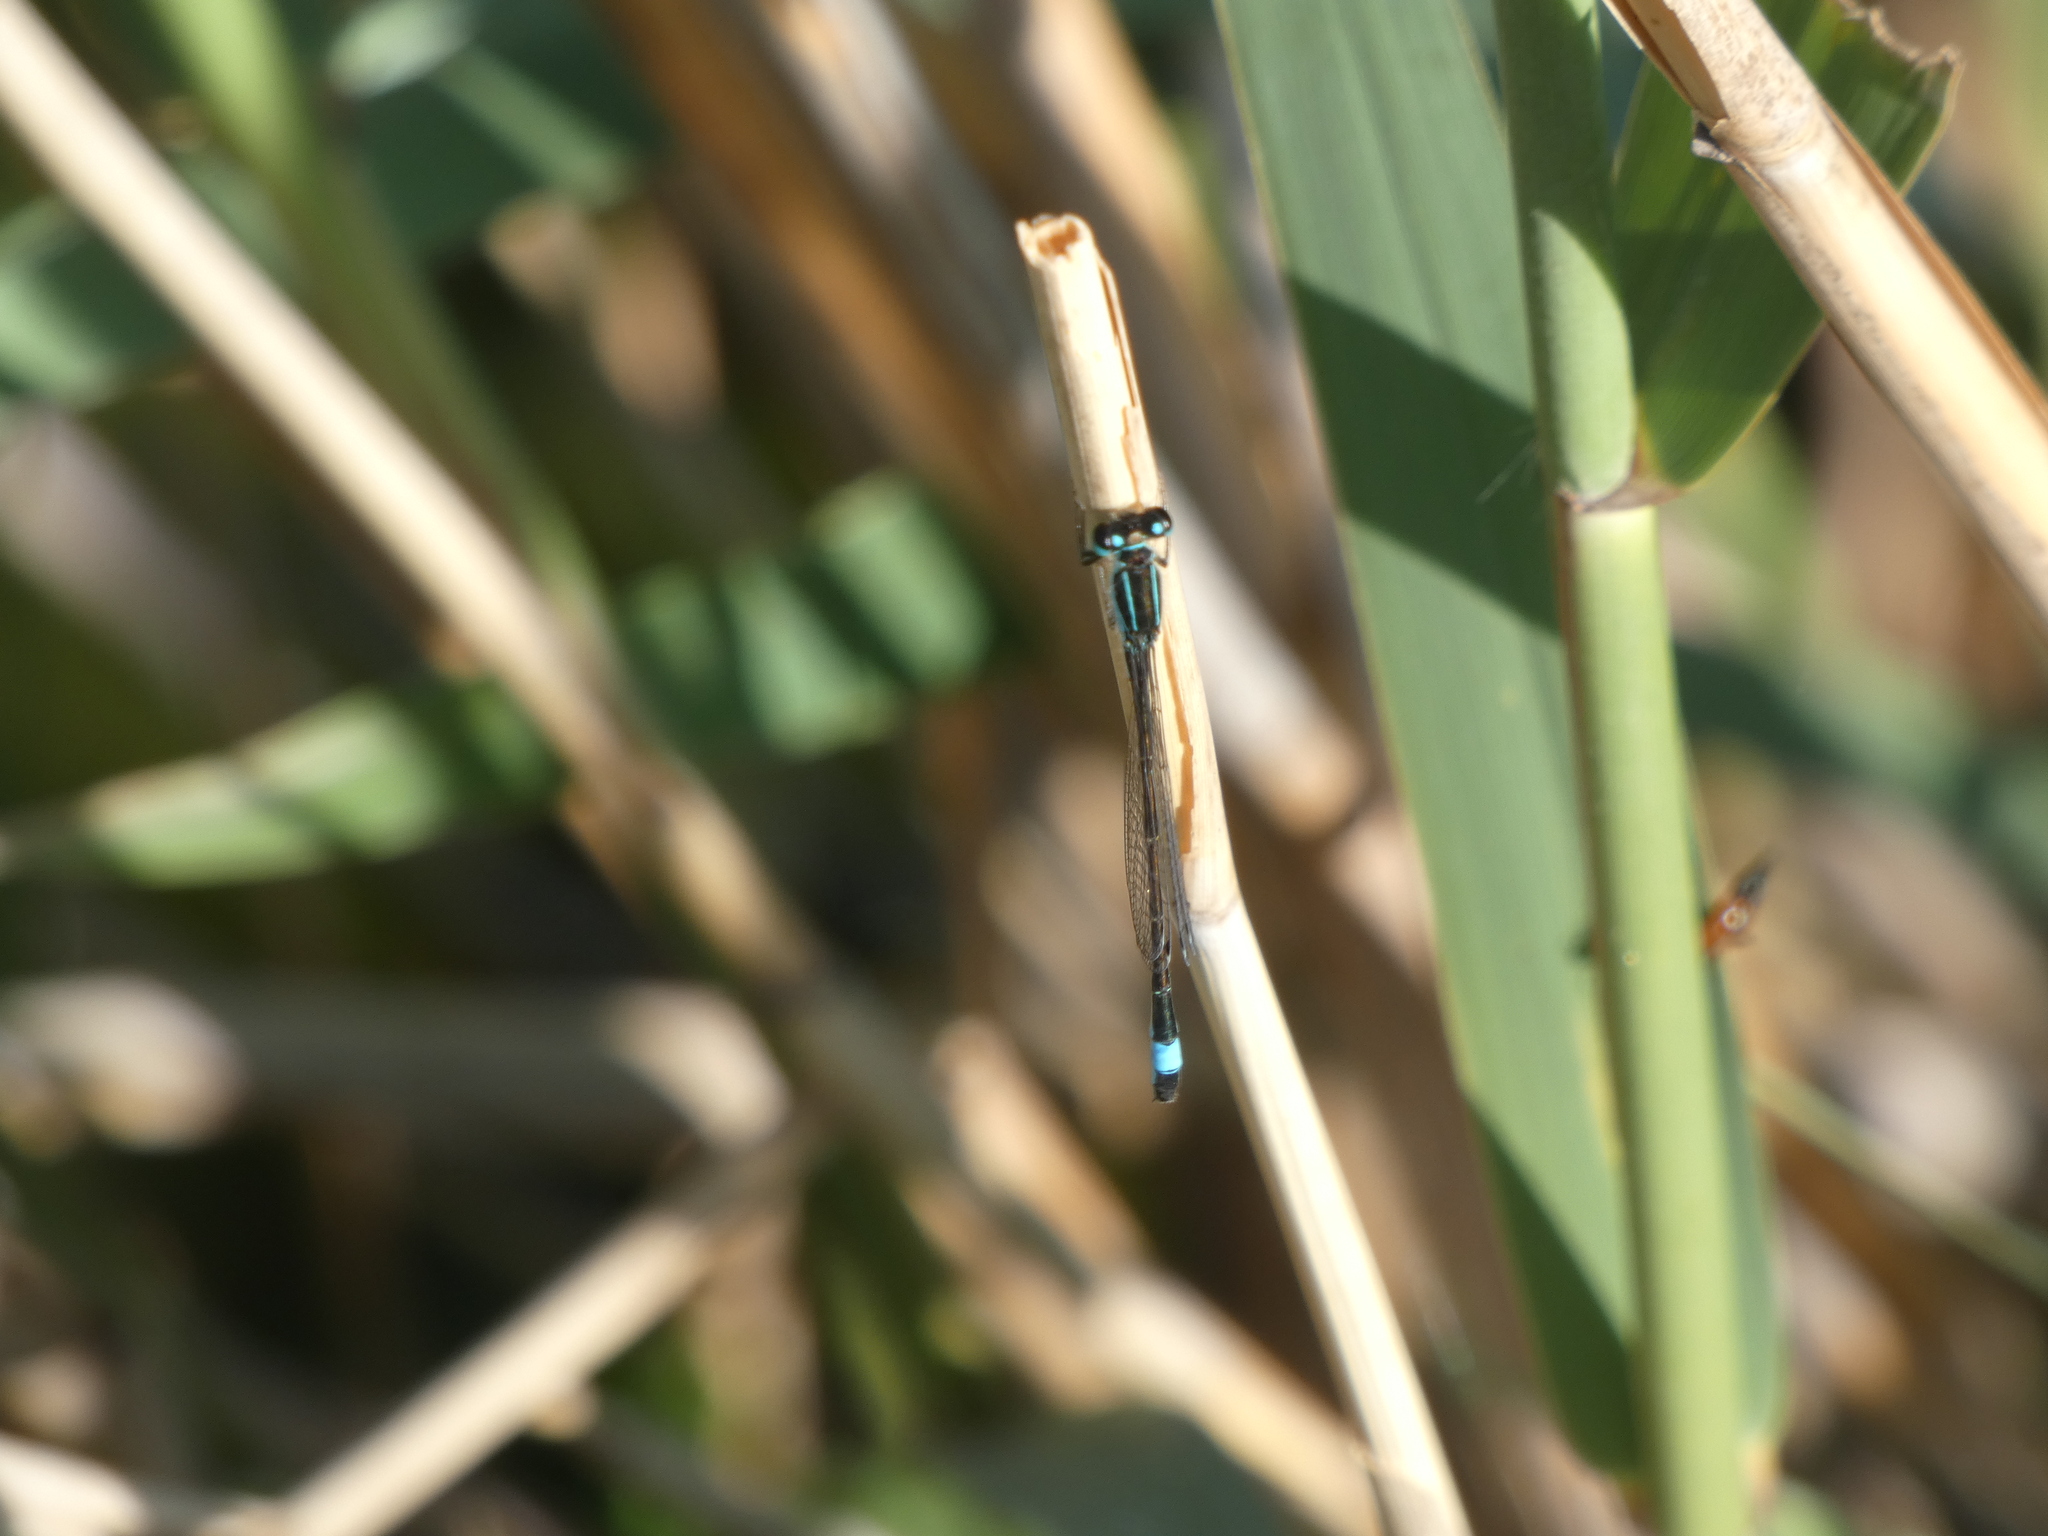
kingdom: Animalia
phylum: Arthropoda
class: Insecta
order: Odonata
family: Coenagrionidae
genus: Ischnura
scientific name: Ischnura elegans
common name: Blue-tailed damselfly
